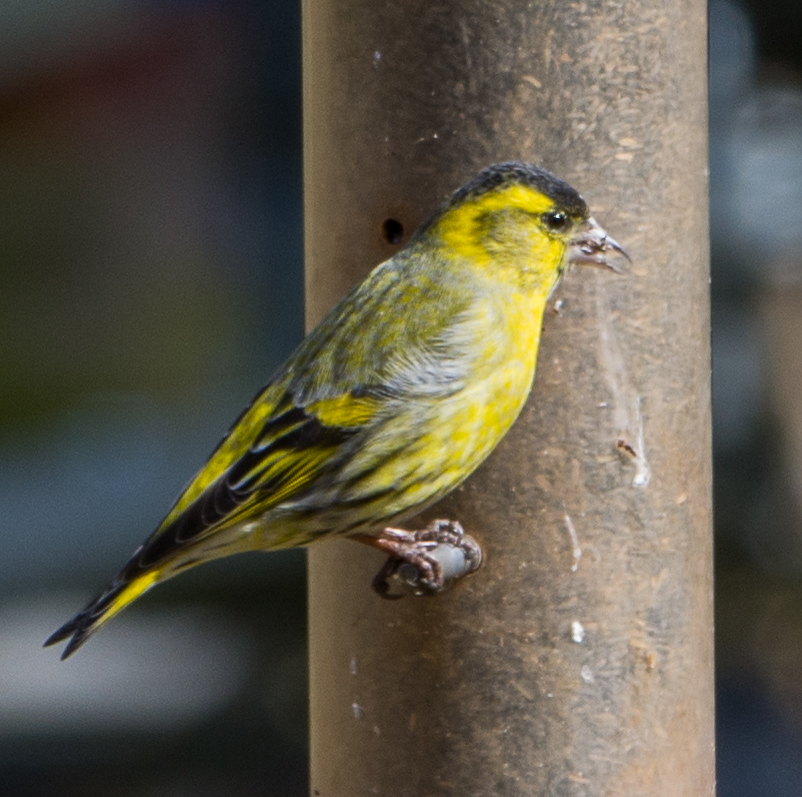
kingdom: Animalia
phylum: Chordata
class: Aves
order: Passeriformes
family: Fringillidae
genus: Spinus
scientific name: Spinus spinus
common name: Eurasian siskin
